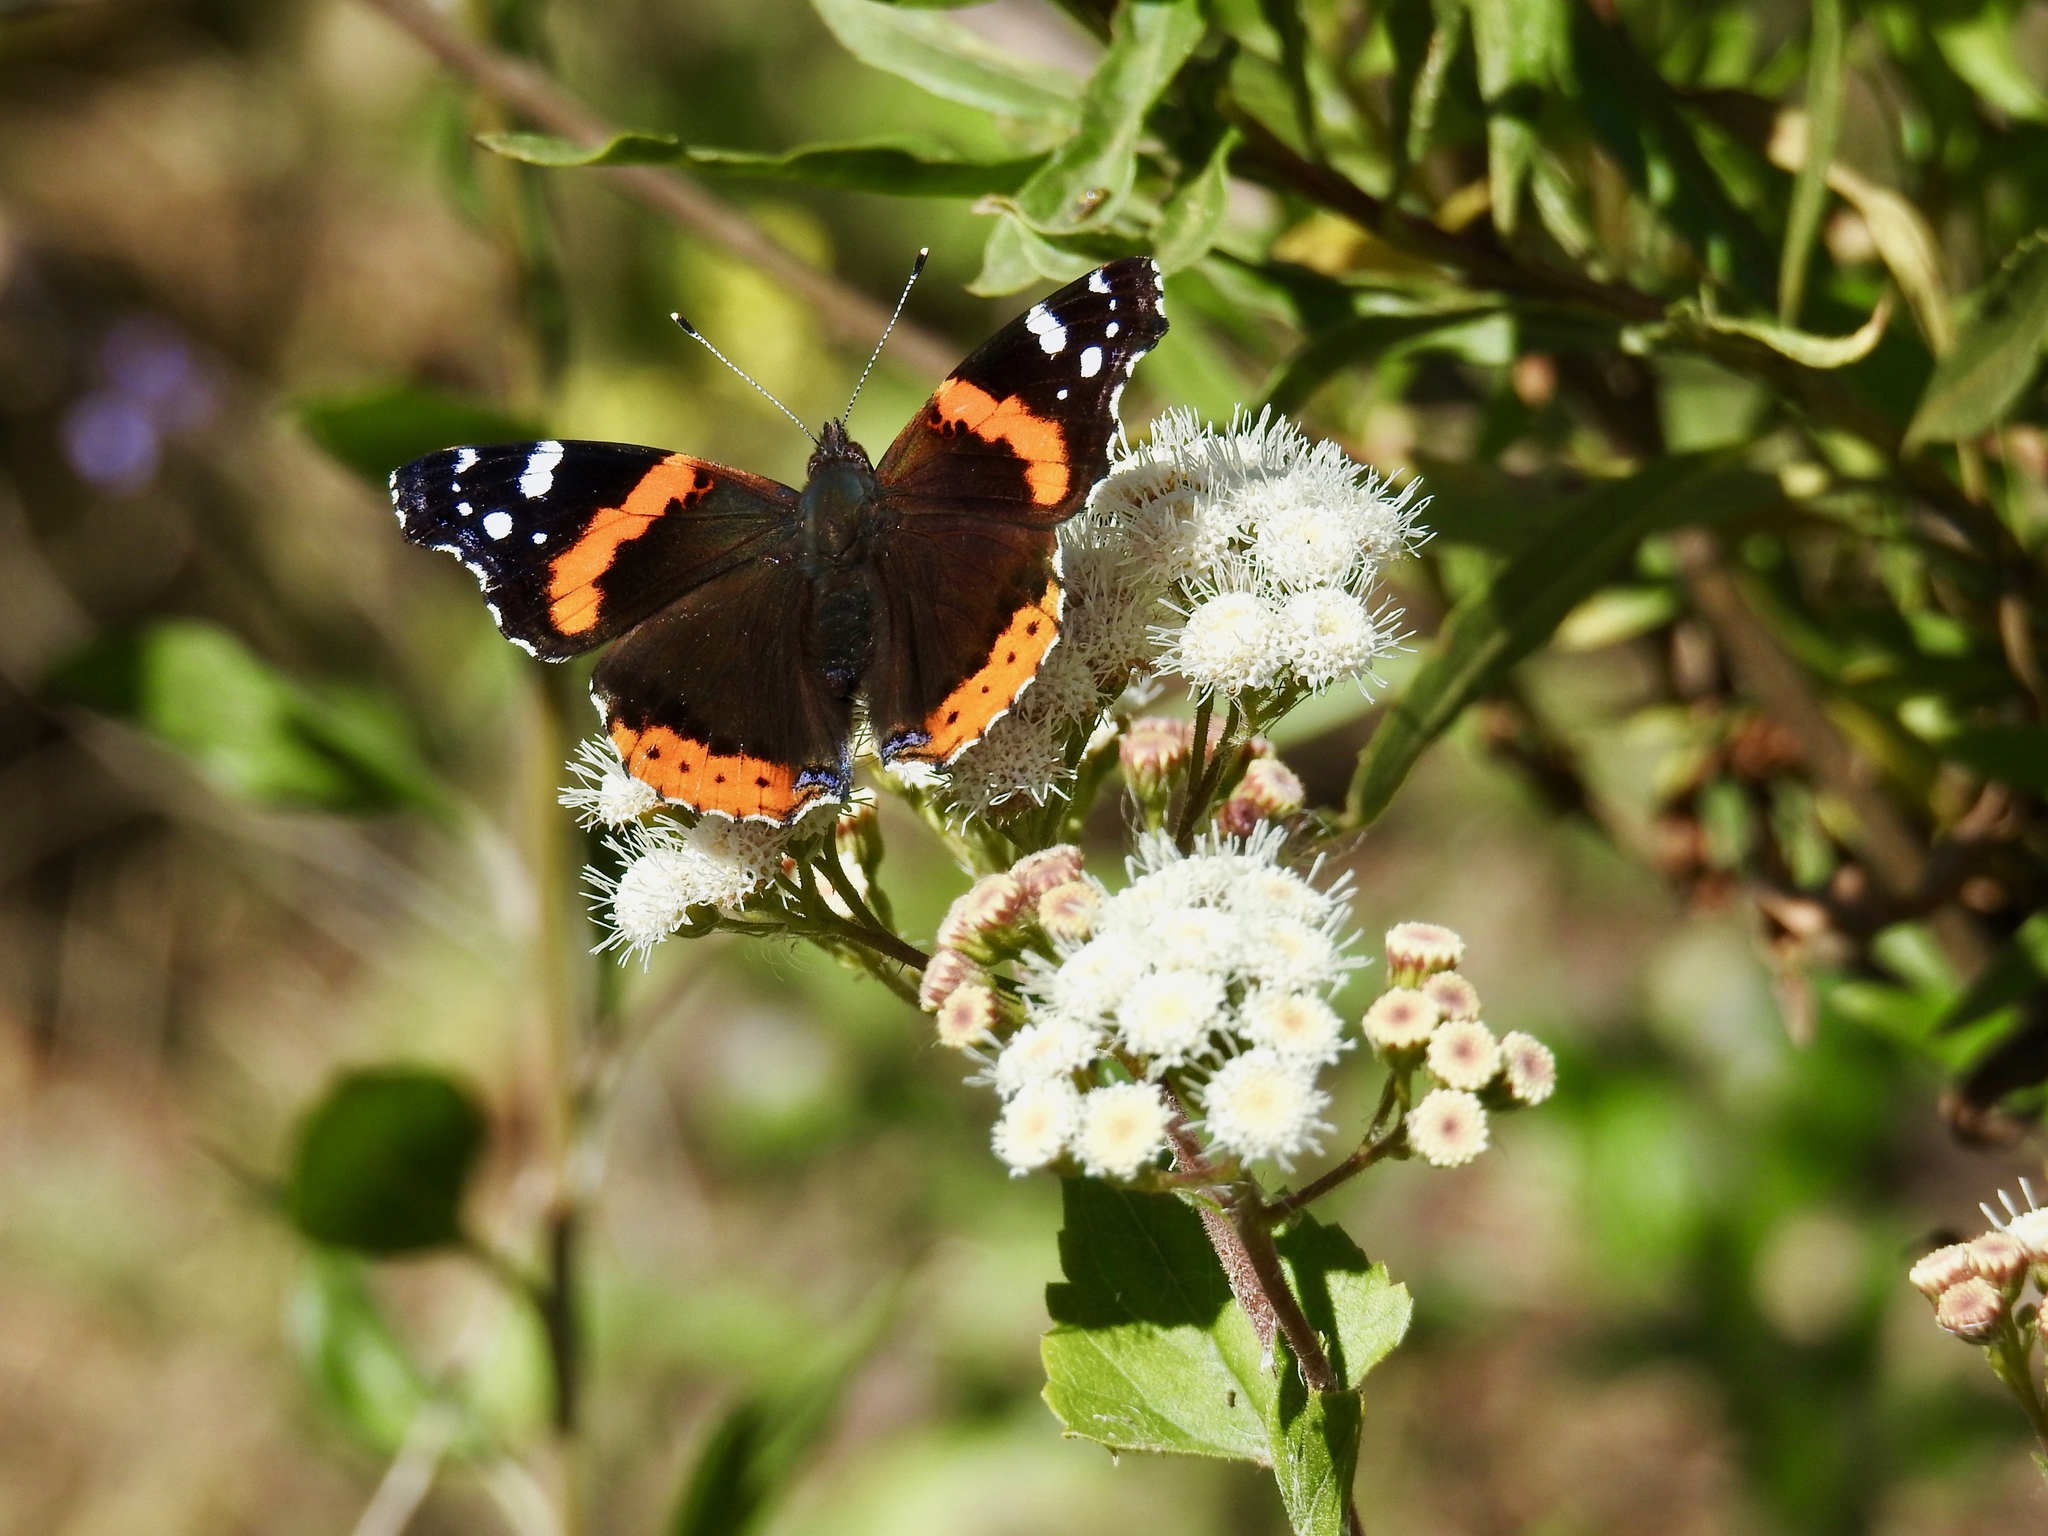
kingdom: Animalia
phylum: Arthropoda
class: Insecta
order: Lepidoptera
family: Nymphalidae
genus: Vanessa
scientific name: Vanessa atalanta
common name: Red admiral
